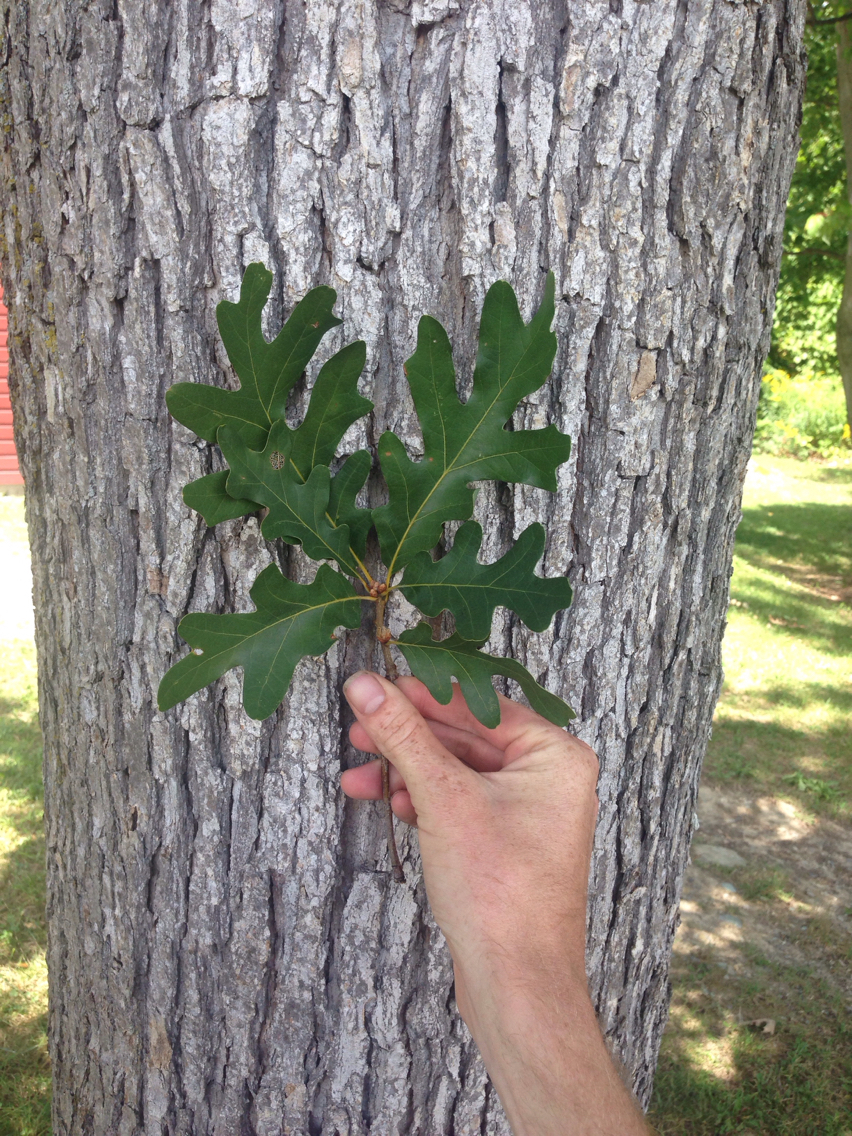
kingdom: Plantae
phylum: Tracheophyta
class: Magnoliopsida
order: Fagales
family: Fagaceae
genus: Quercus
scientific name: Quercus alba
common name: White oak
